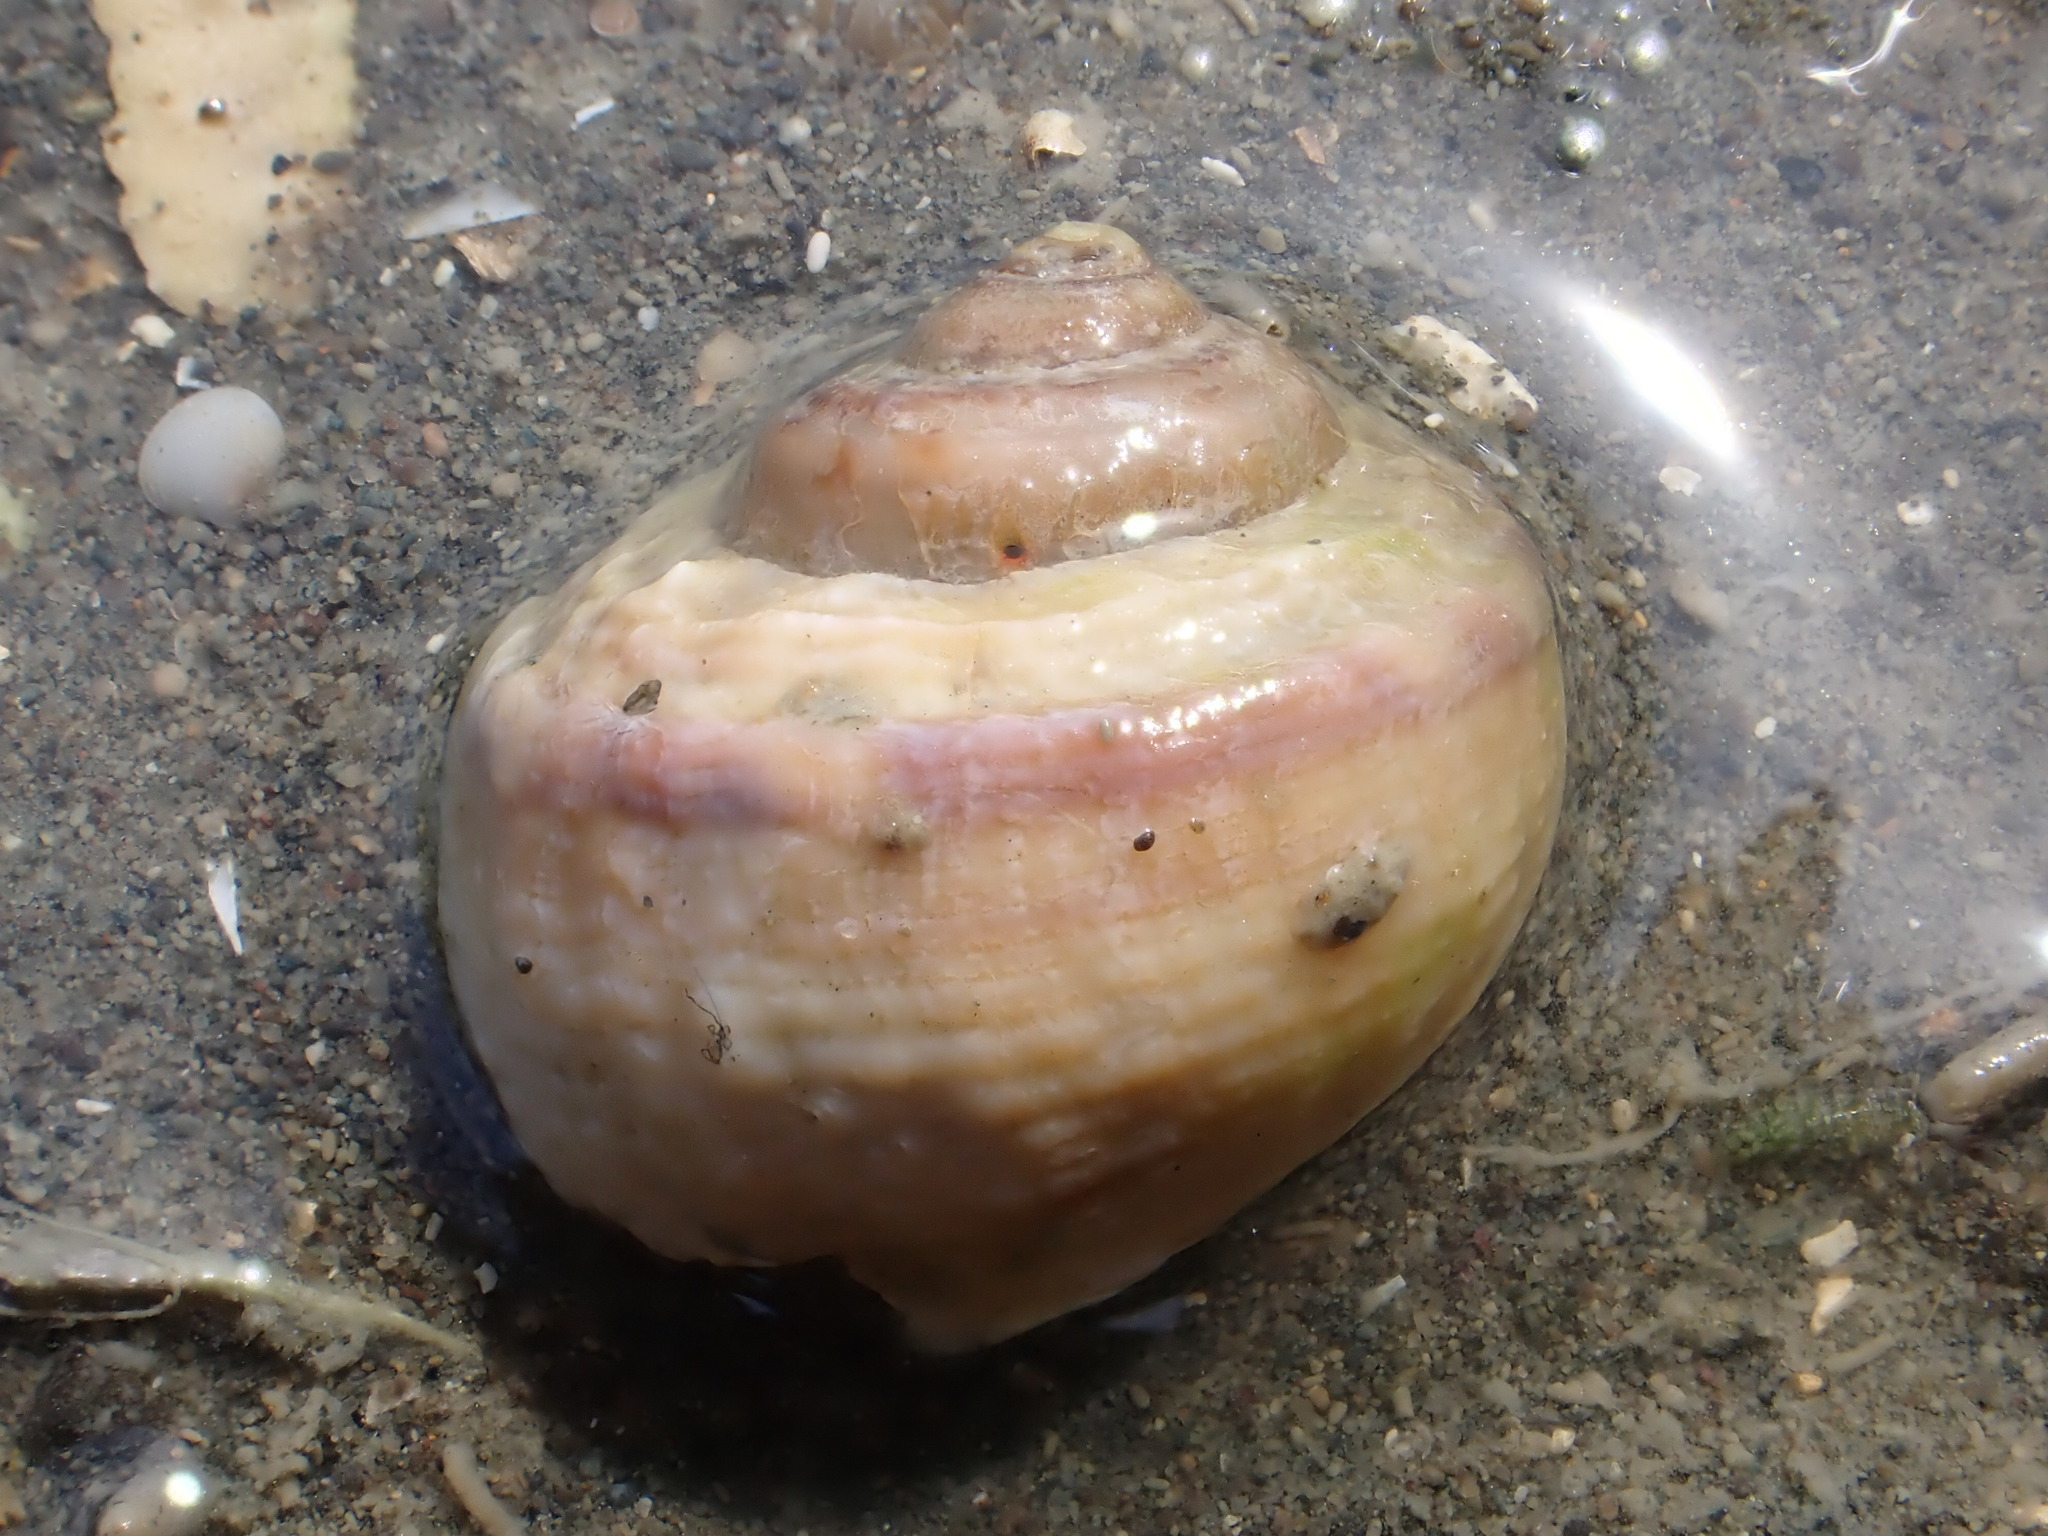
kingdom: Animalia
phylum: Mollusca
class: Gastropoda
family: Amphibolidae
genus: Amphibola
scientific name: Amphibola crenata
